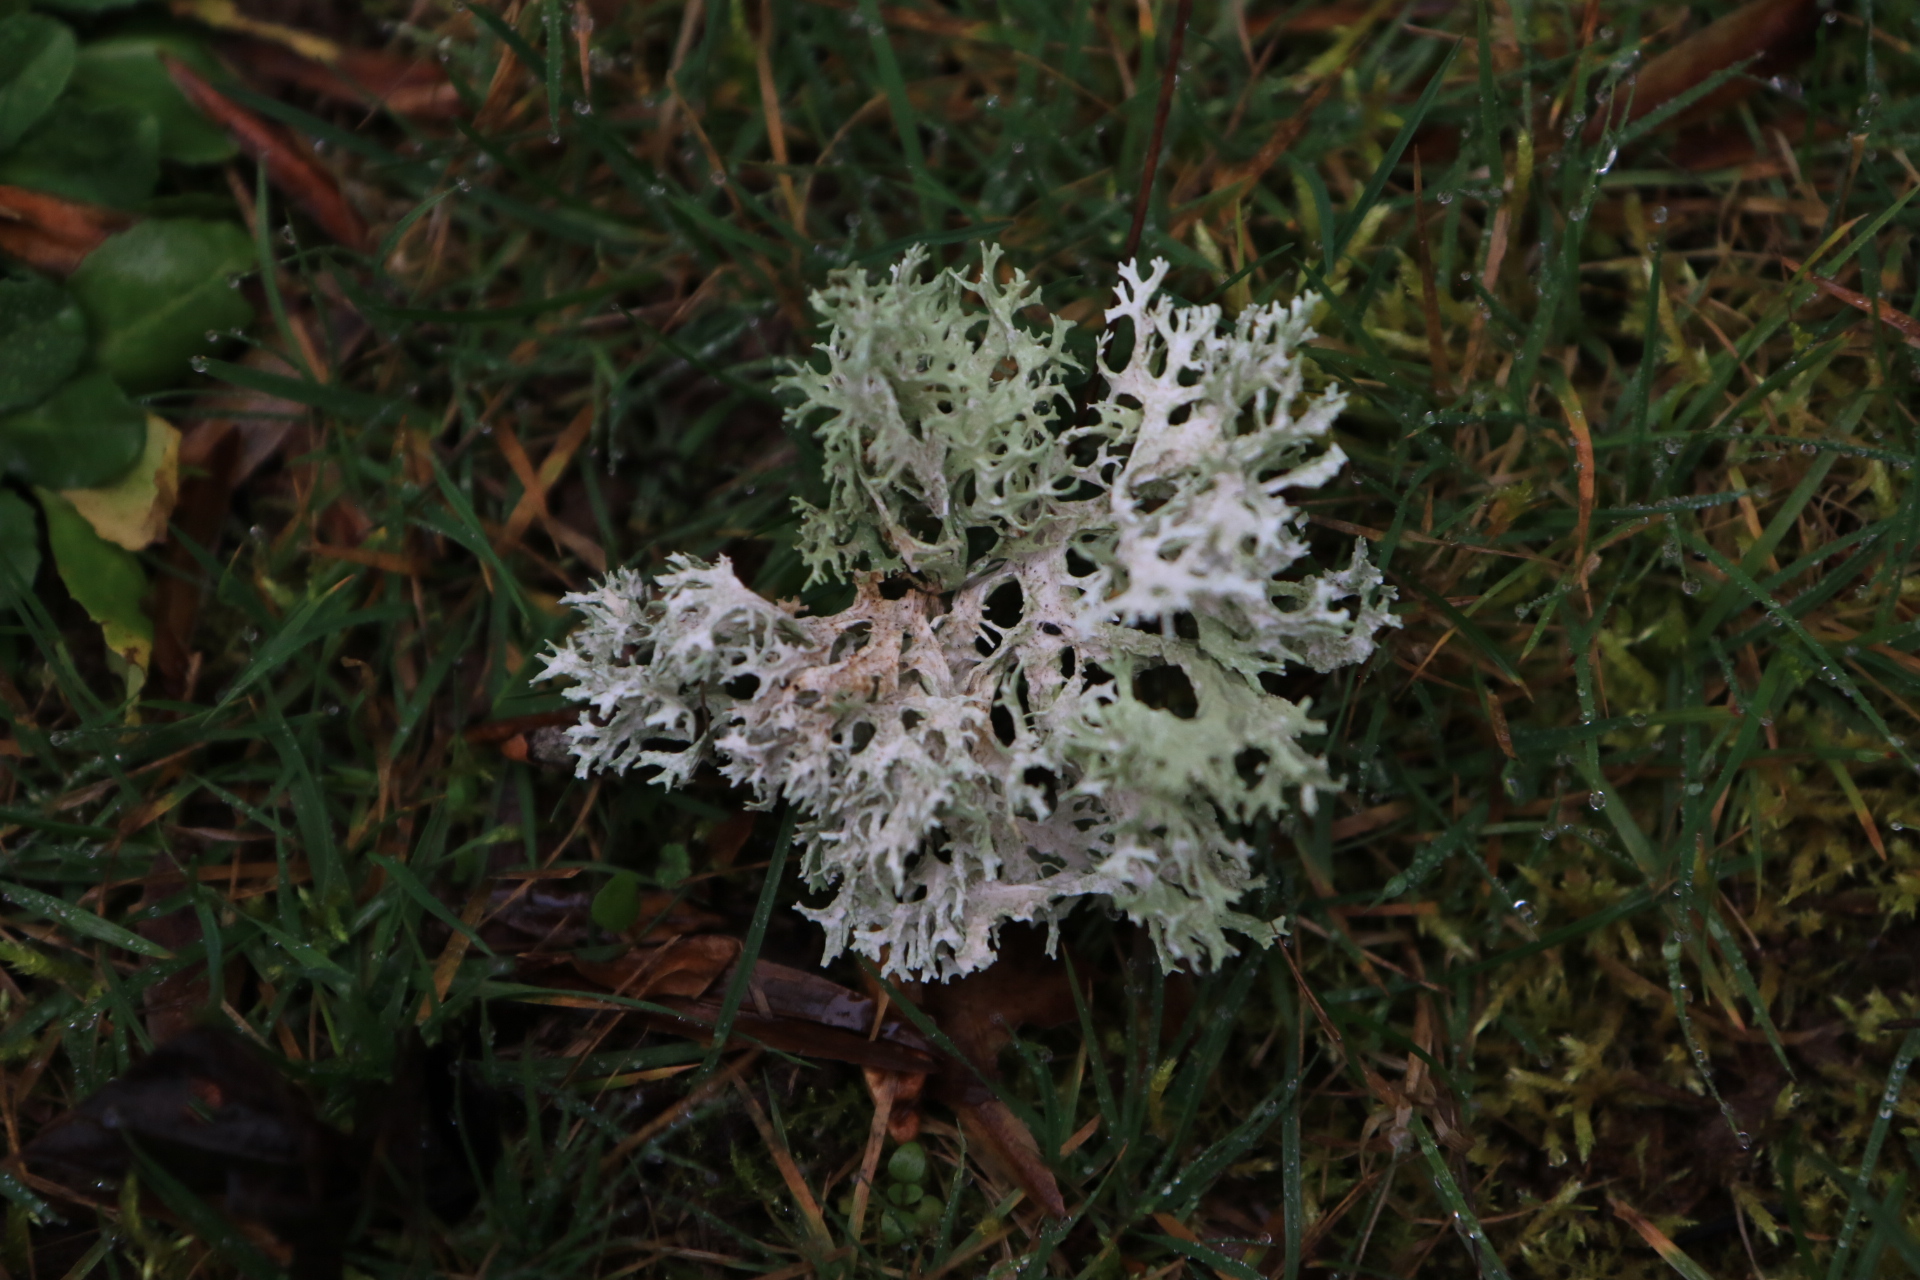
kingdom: Fungi
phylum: Ascomycota
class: Lecanoromycetes
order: Lecanorales
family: Parmeliaceae
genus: Evernia
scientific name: Evernia prunastri
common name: Oak moss
